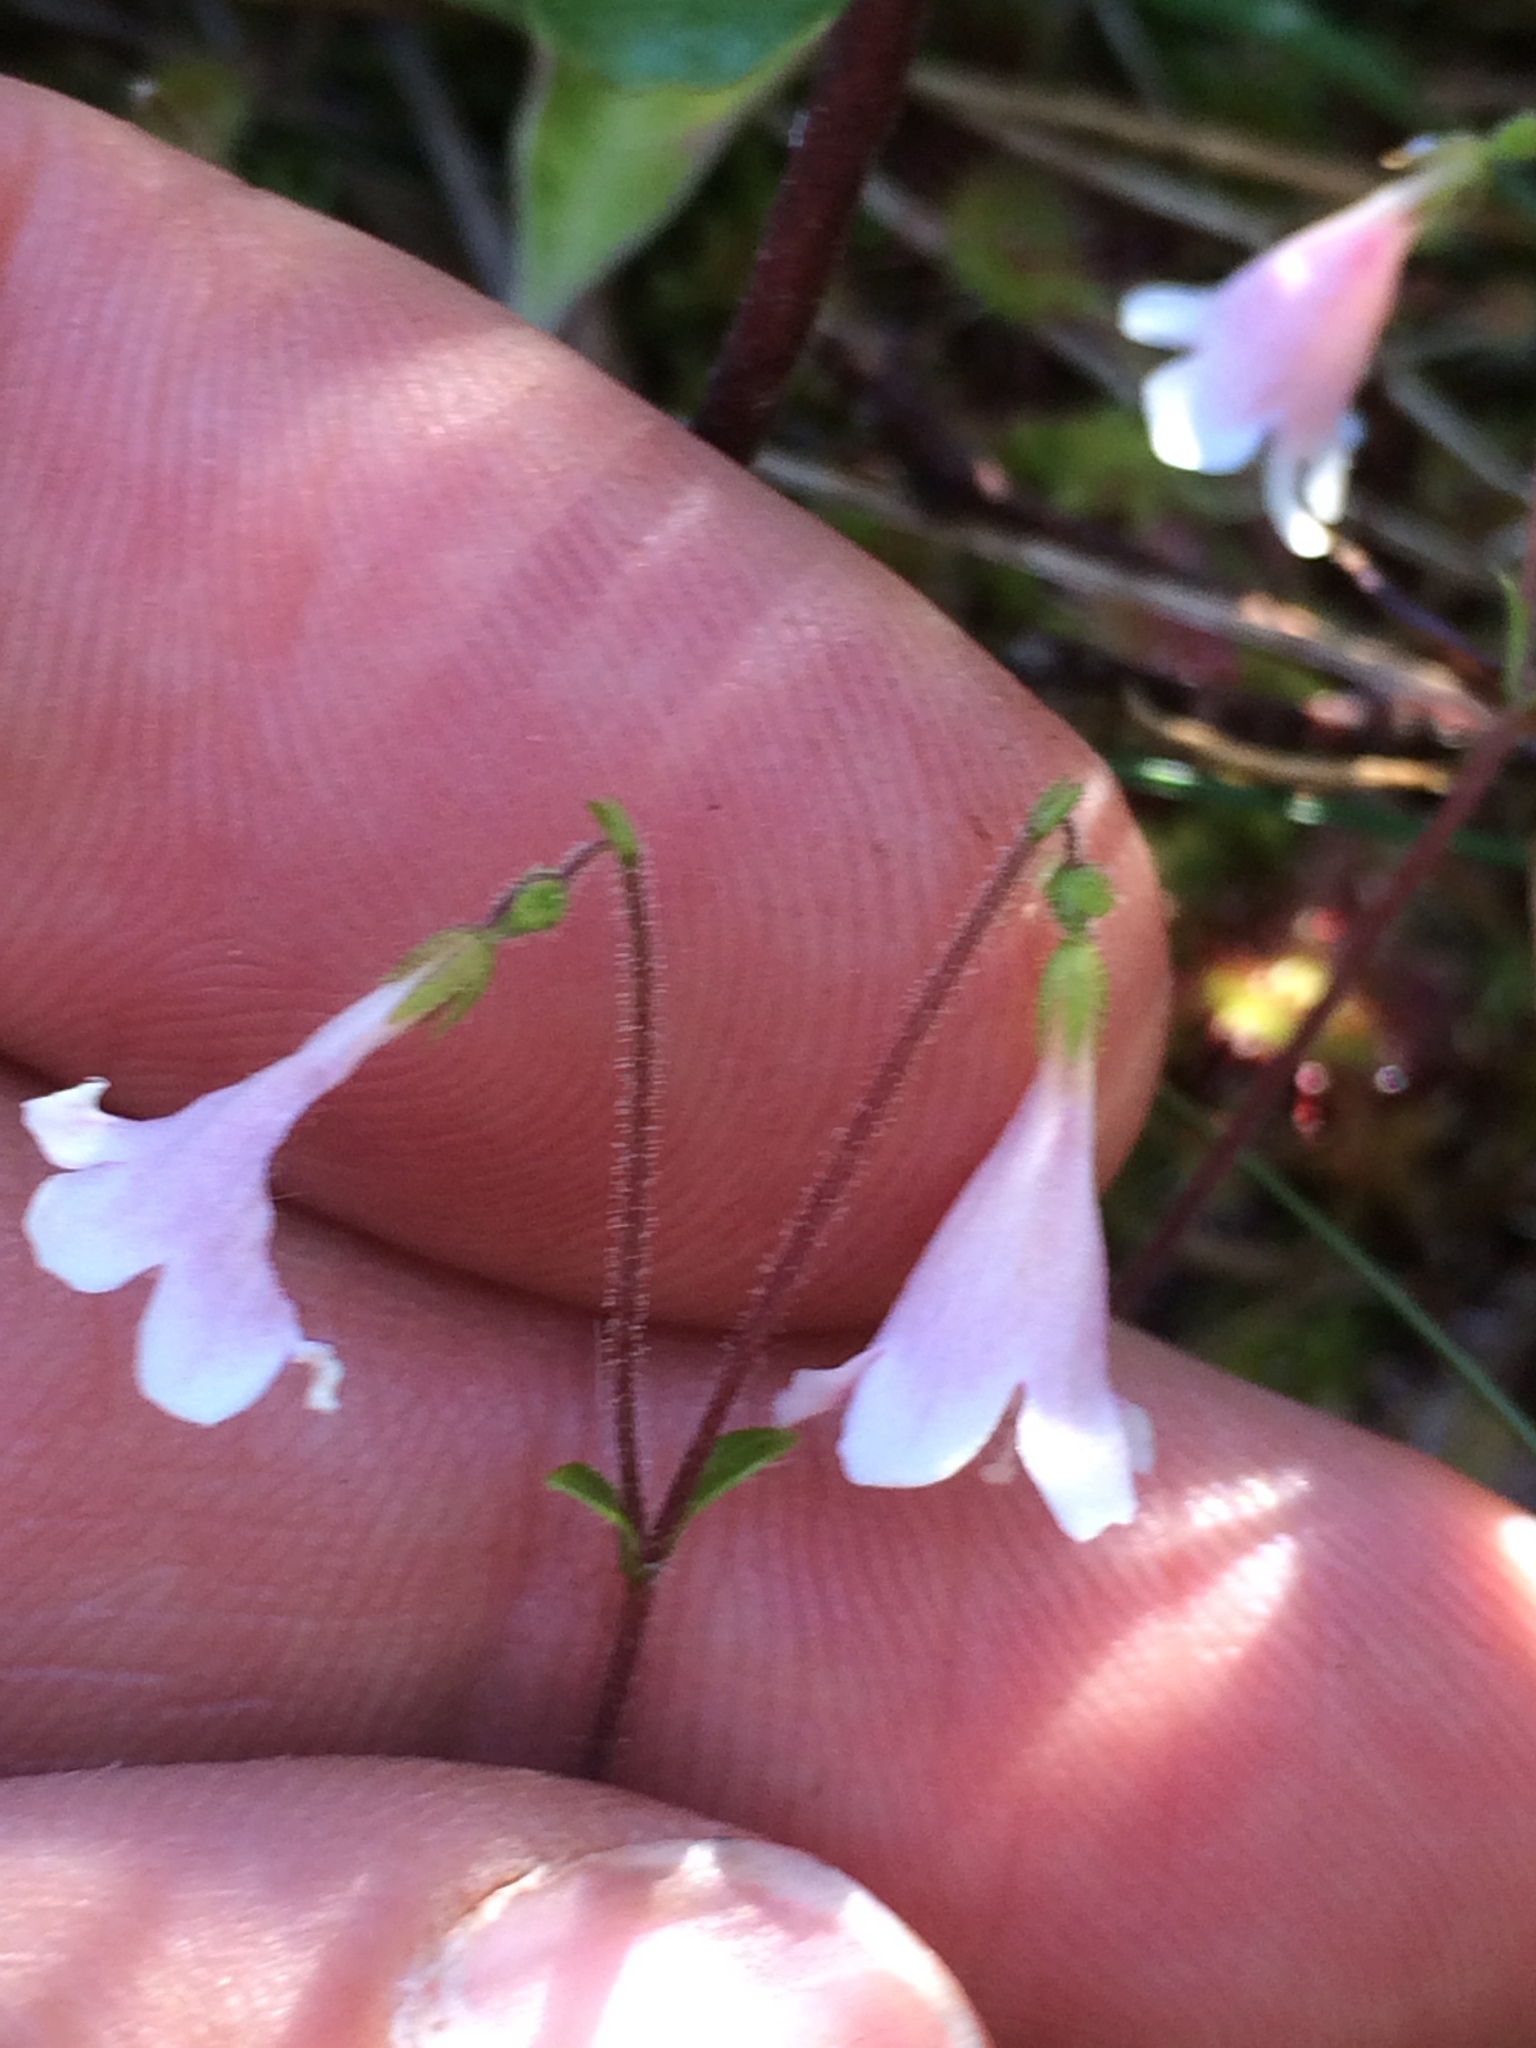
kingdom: Plantae
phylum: Tracheophyta
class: Magnoliopsida
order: Dipsacales
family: Caprifoliaceae
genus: Linnaea
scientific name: Linnaea borealis
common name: Twinflower
